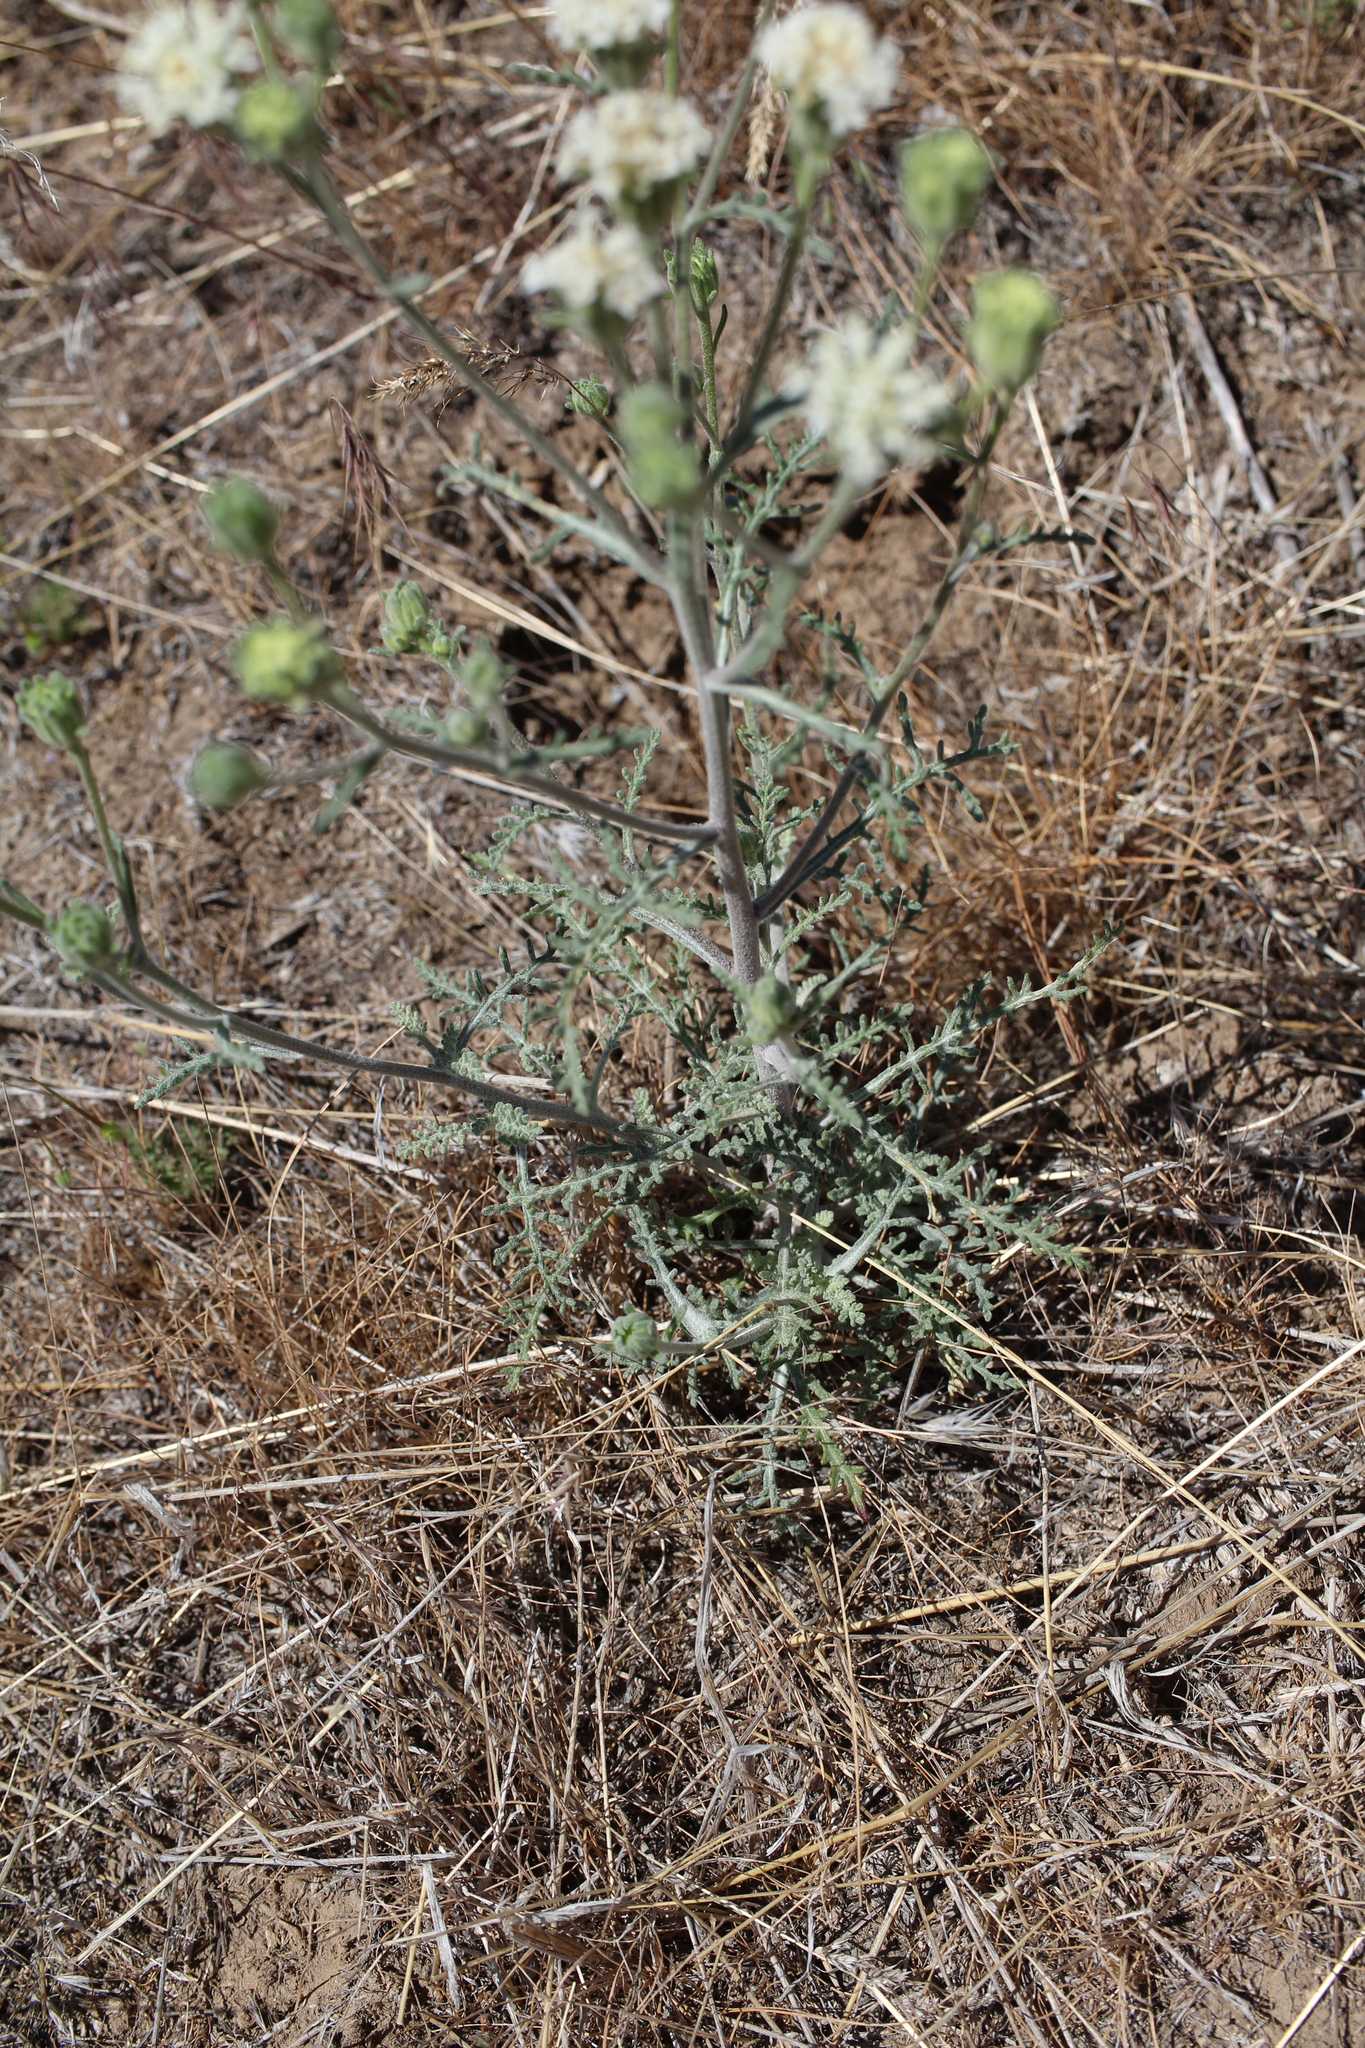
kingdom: Plantae
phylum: Tracheophyta
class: Magnoliopsida
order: Asterales
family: Asteraceae
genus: Chaenactis
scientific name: Chaenactis douglasii
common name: Hoary pincushion
